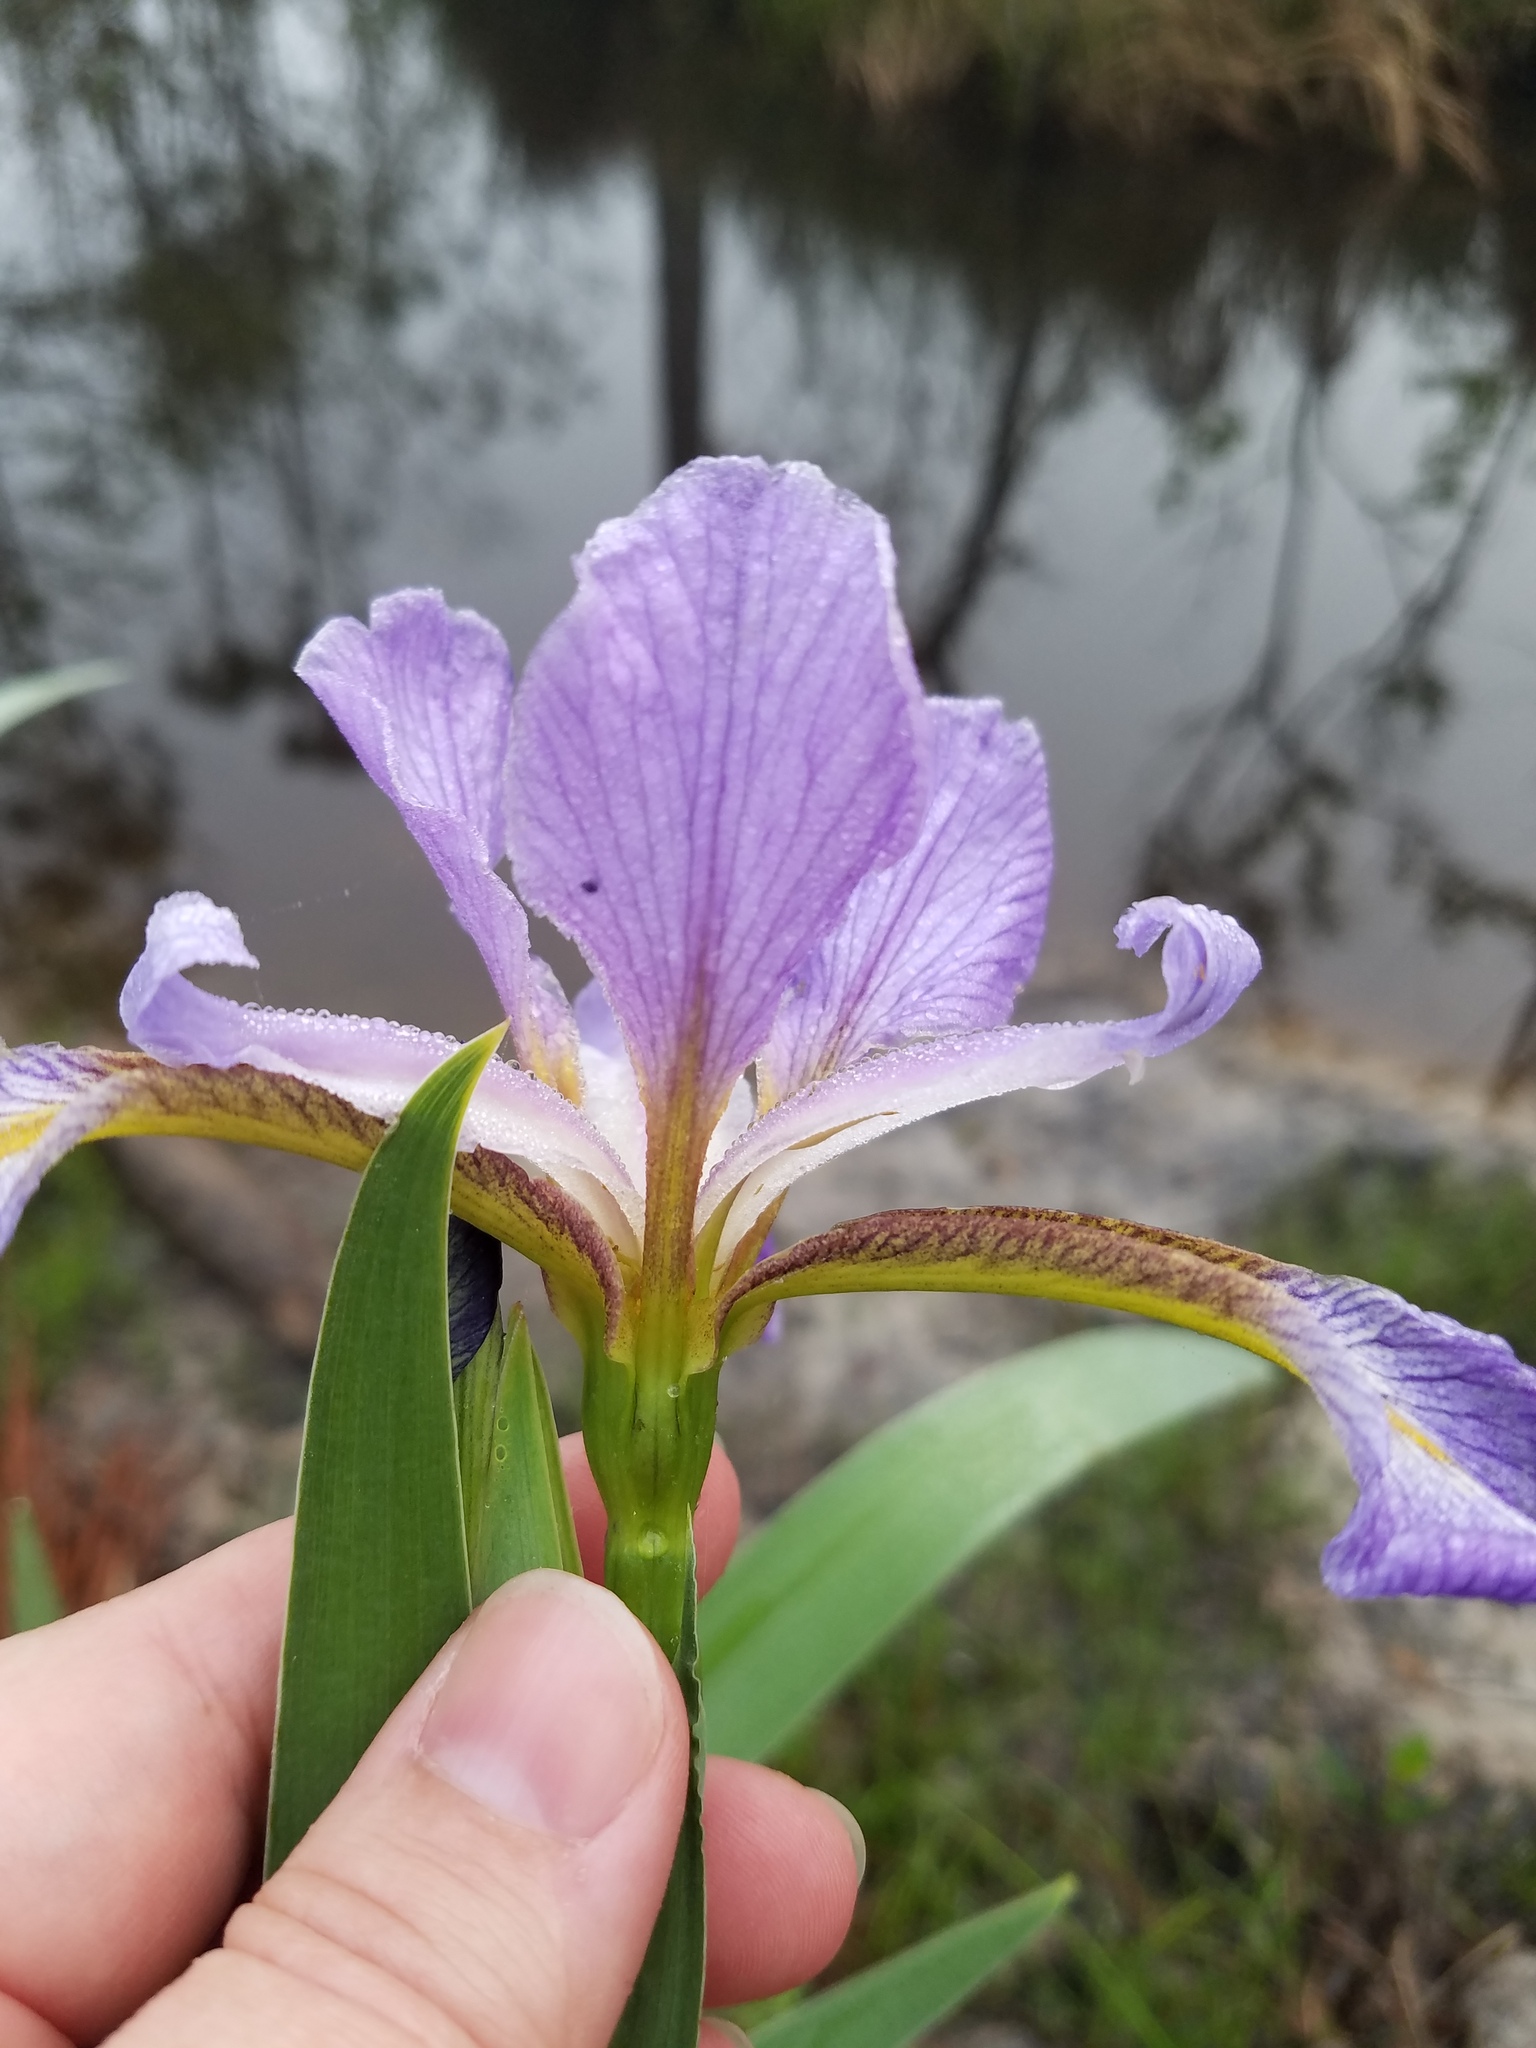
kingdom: Plantae
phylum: Tracheophyta
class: Liliopsida
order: Asparagales
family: Iridaceae
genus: Iris
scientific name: Iris virginica
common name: Southern blue flag
